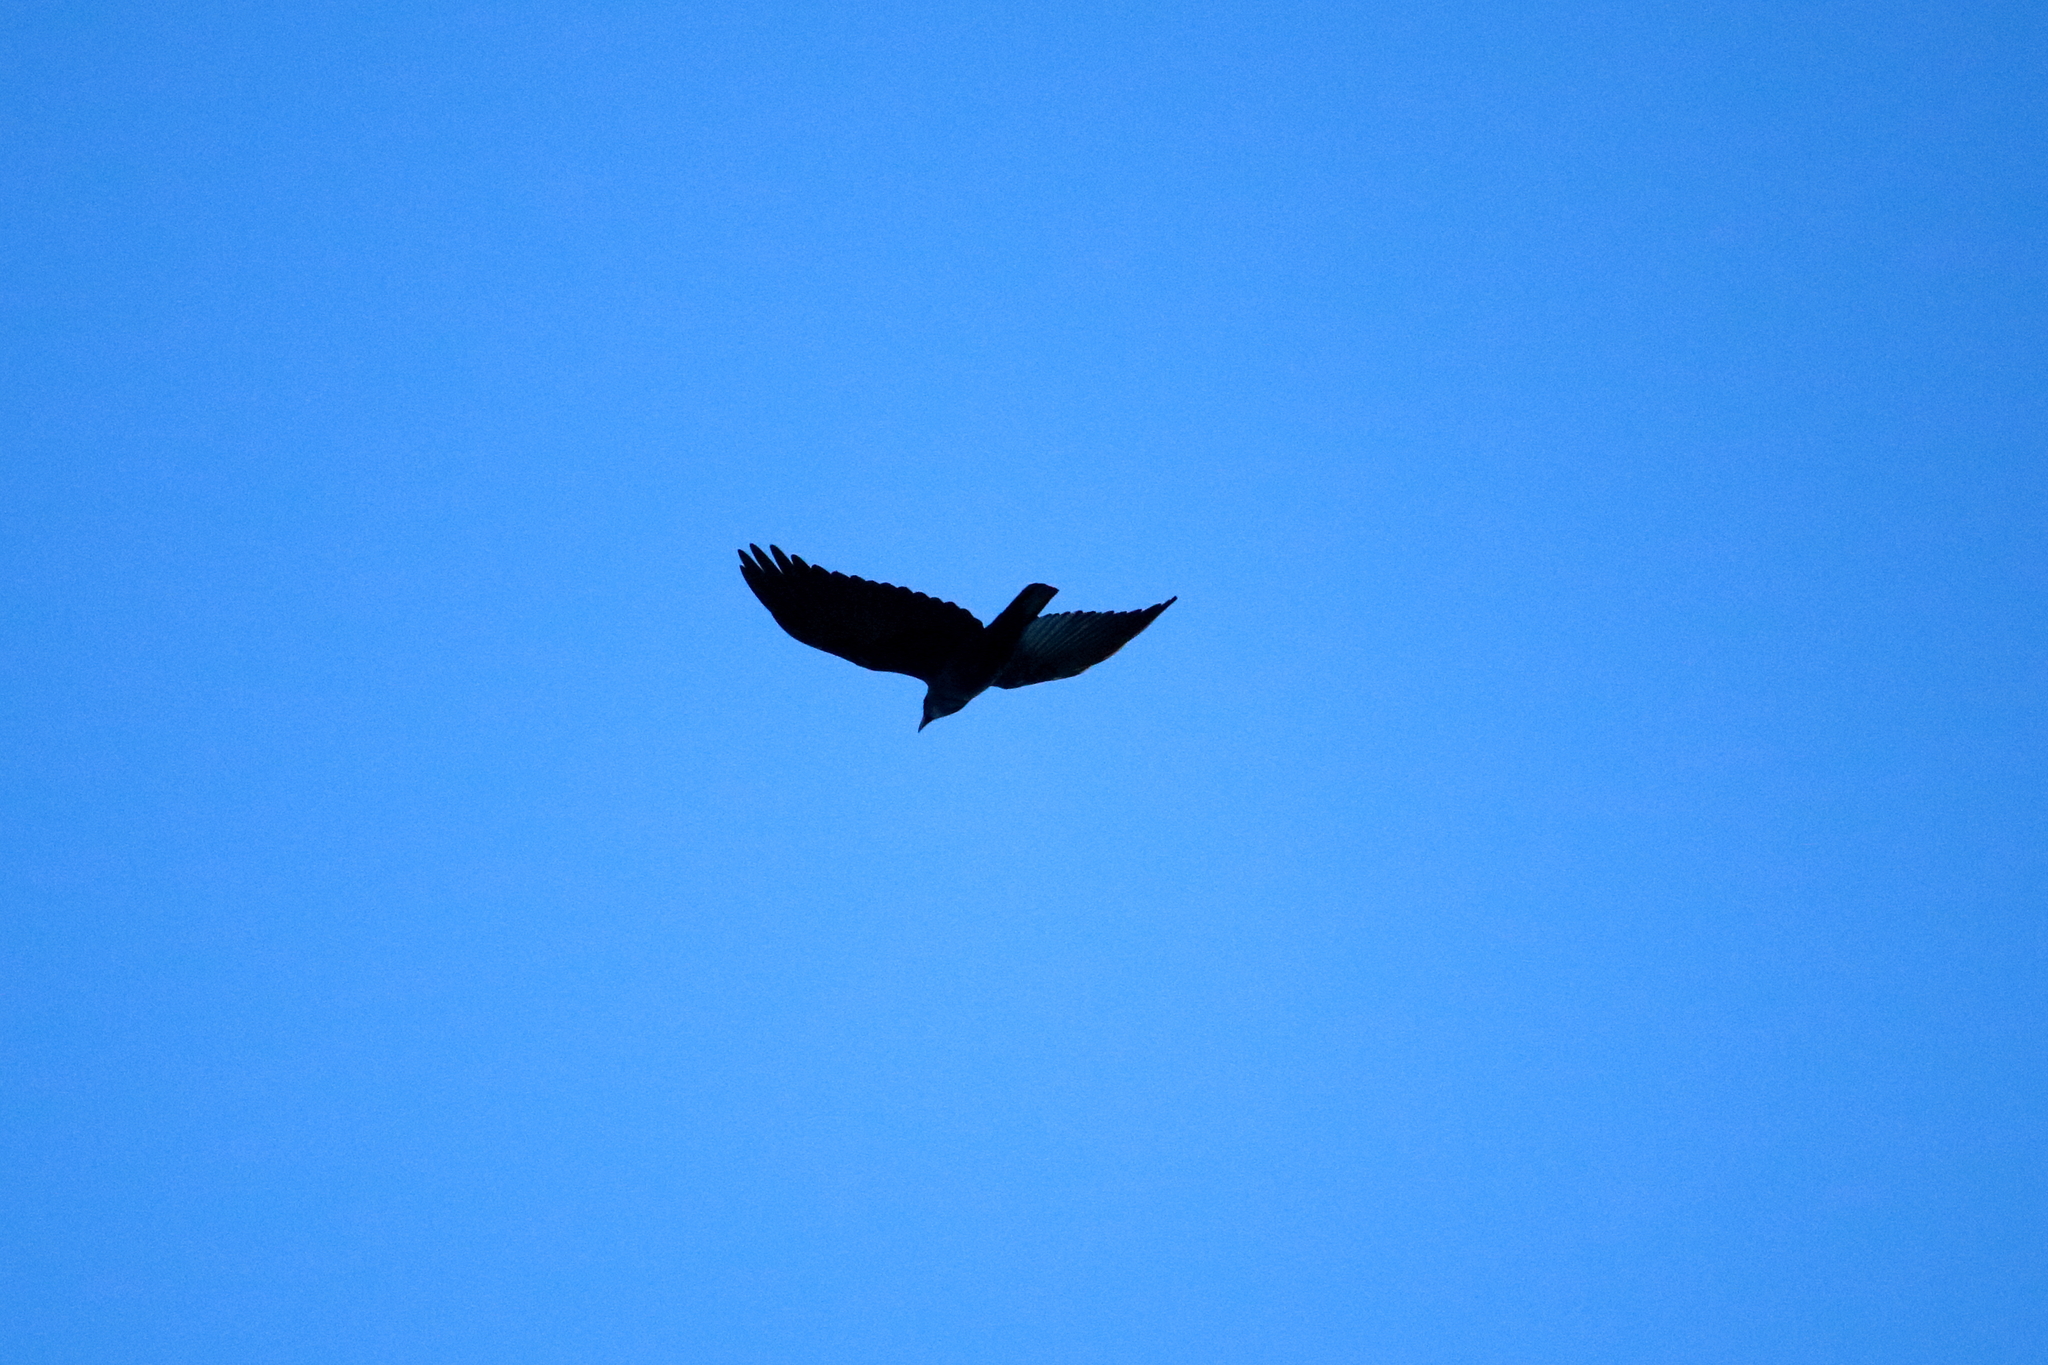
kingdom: Animalia
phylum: Chordata
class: Aves
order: Passeriformes
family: Corvidae
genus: Corvus
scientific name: Corvus ossifragus
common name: Fish crow
